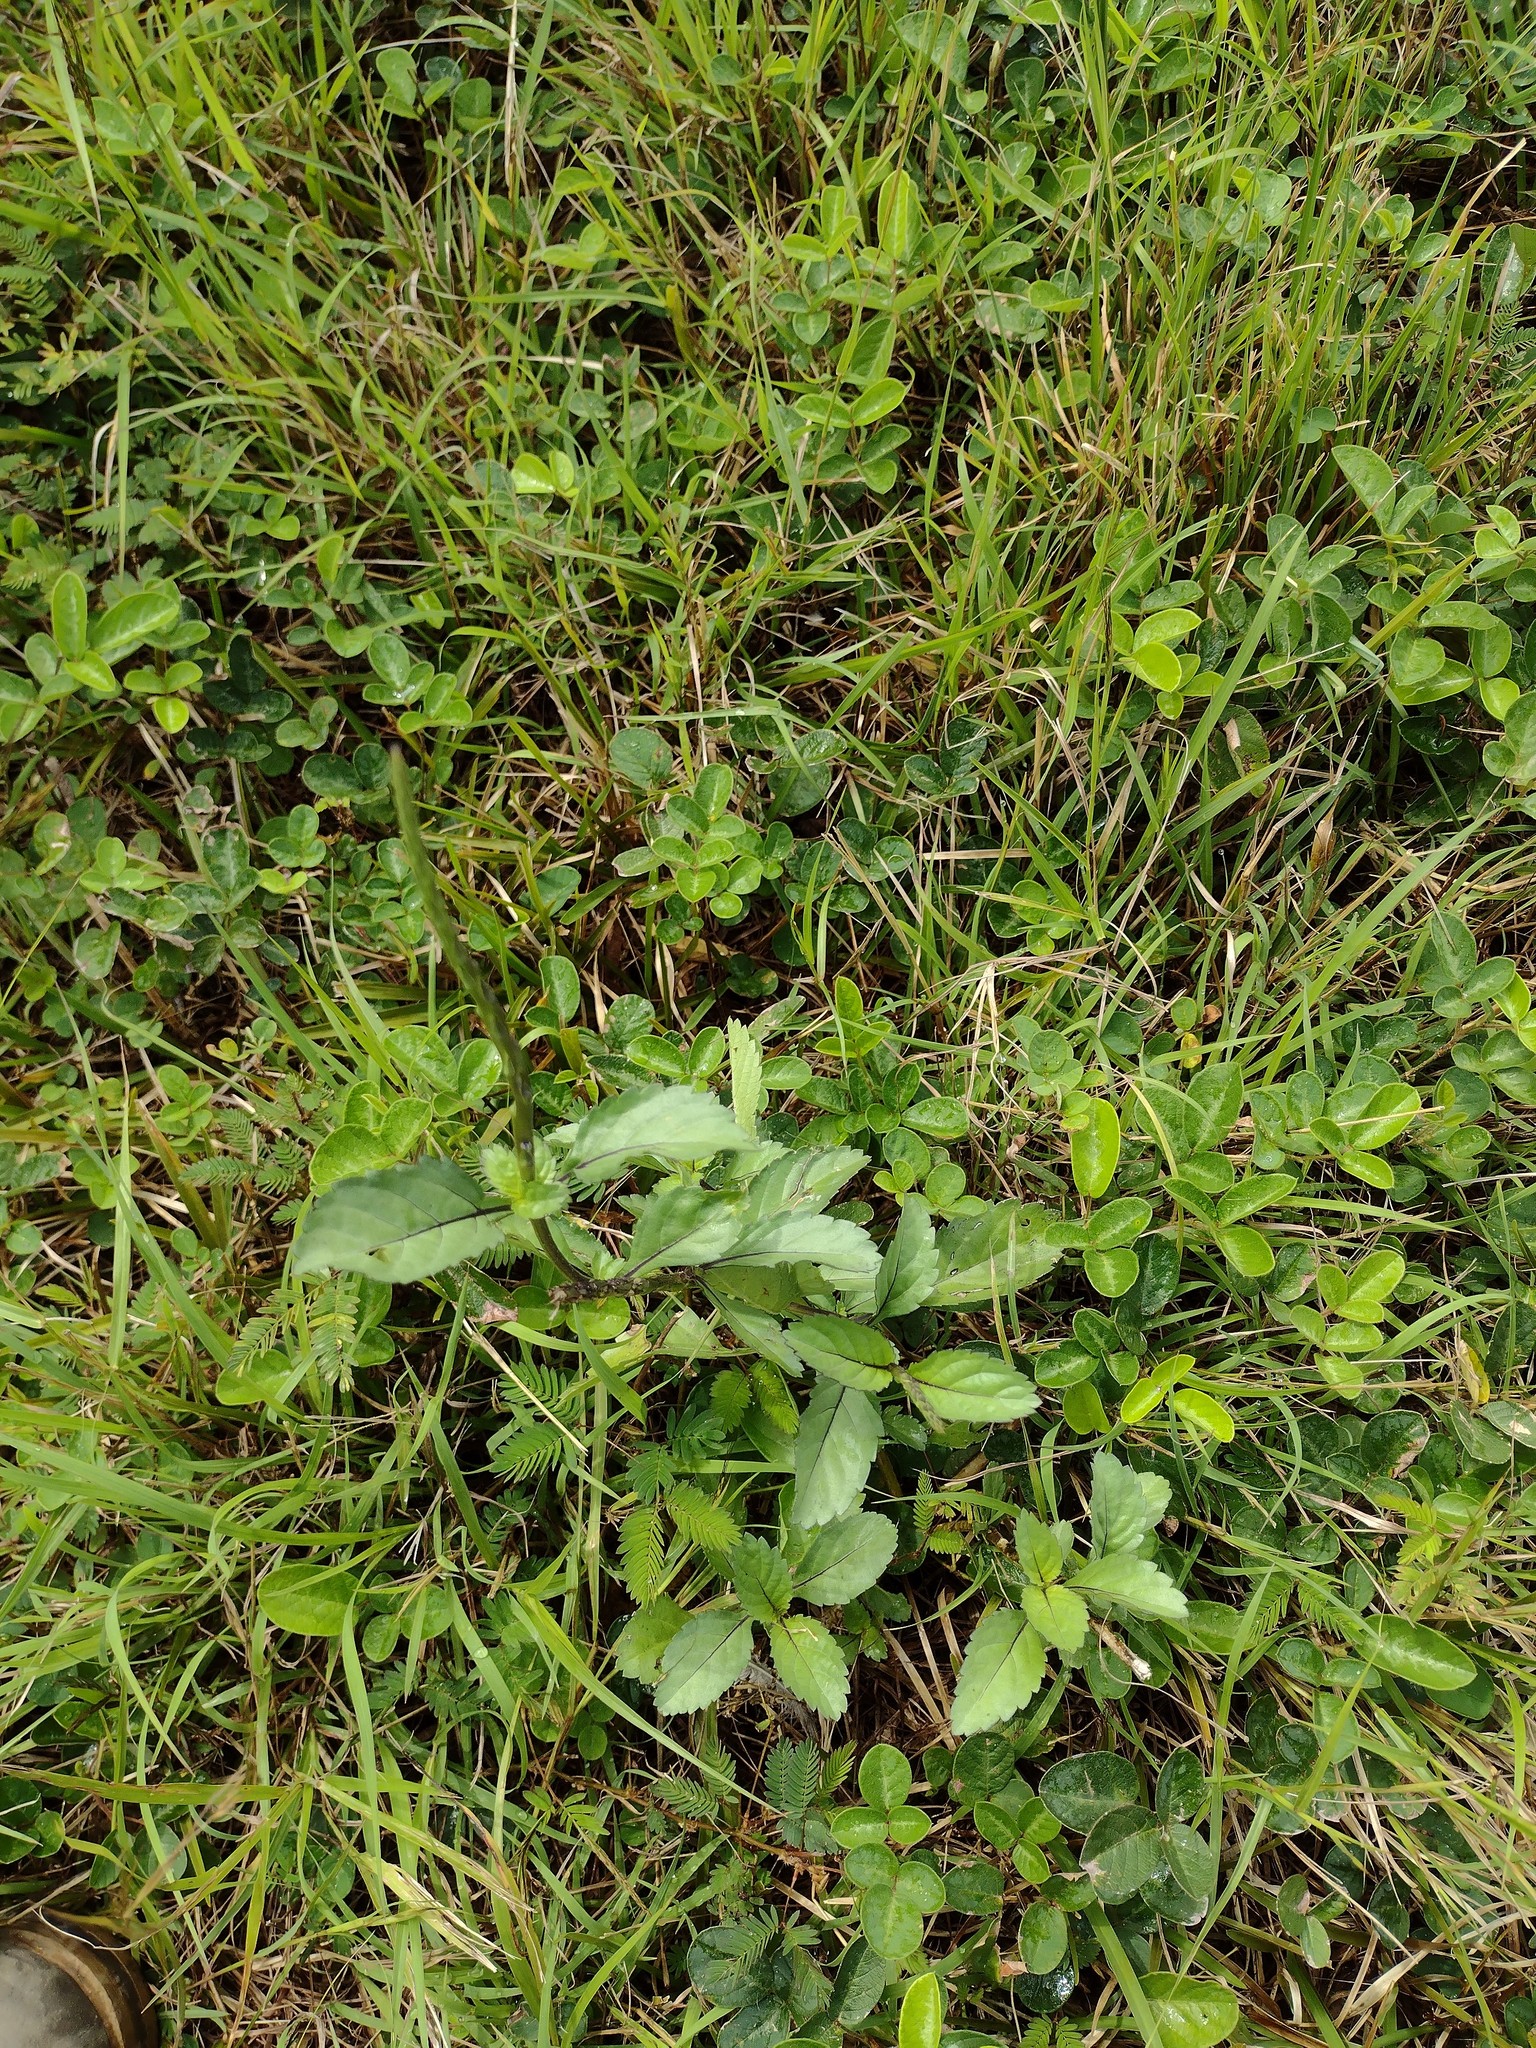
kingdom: Plantae
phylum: Tracheophyta
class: Magnoliopsida
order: Lamiales
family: Verbenaceae
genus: Stachytarpheta
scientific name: Stachytarpheta jamaicensis
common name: Light-blue snakeweed
